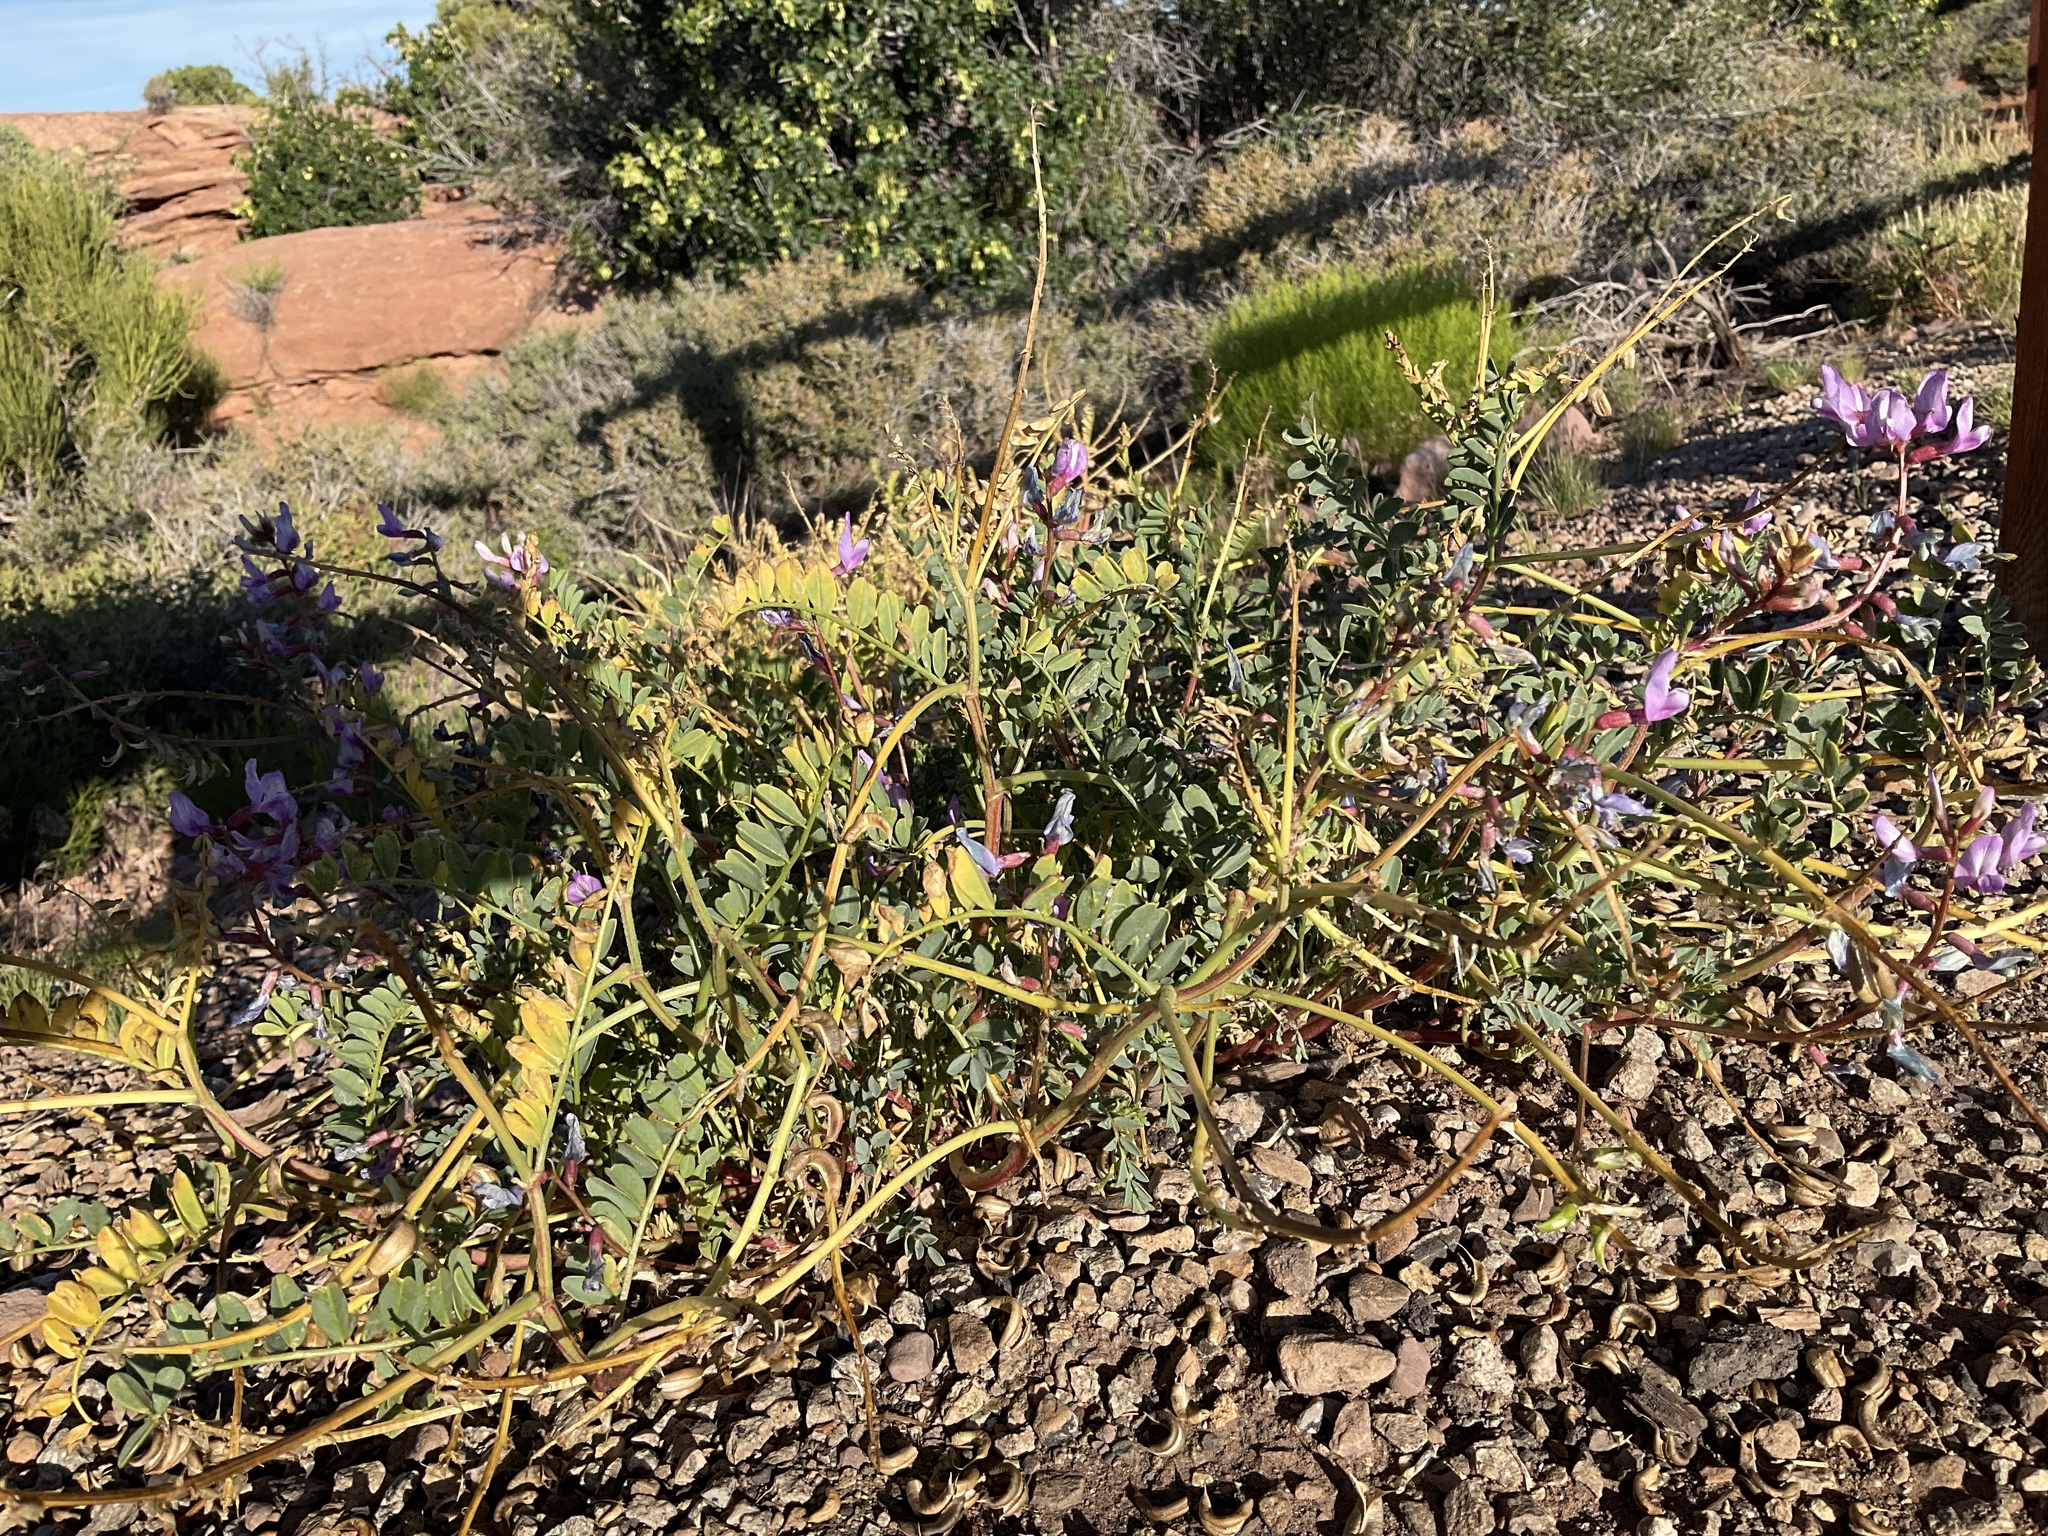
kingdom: Plantae
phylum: Tracheophyta
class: Magnoliopsida
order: Fabales
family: Fabaceae
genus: Astragalus
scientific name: Astragalus preussii
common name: Preuss's milk-vetch
